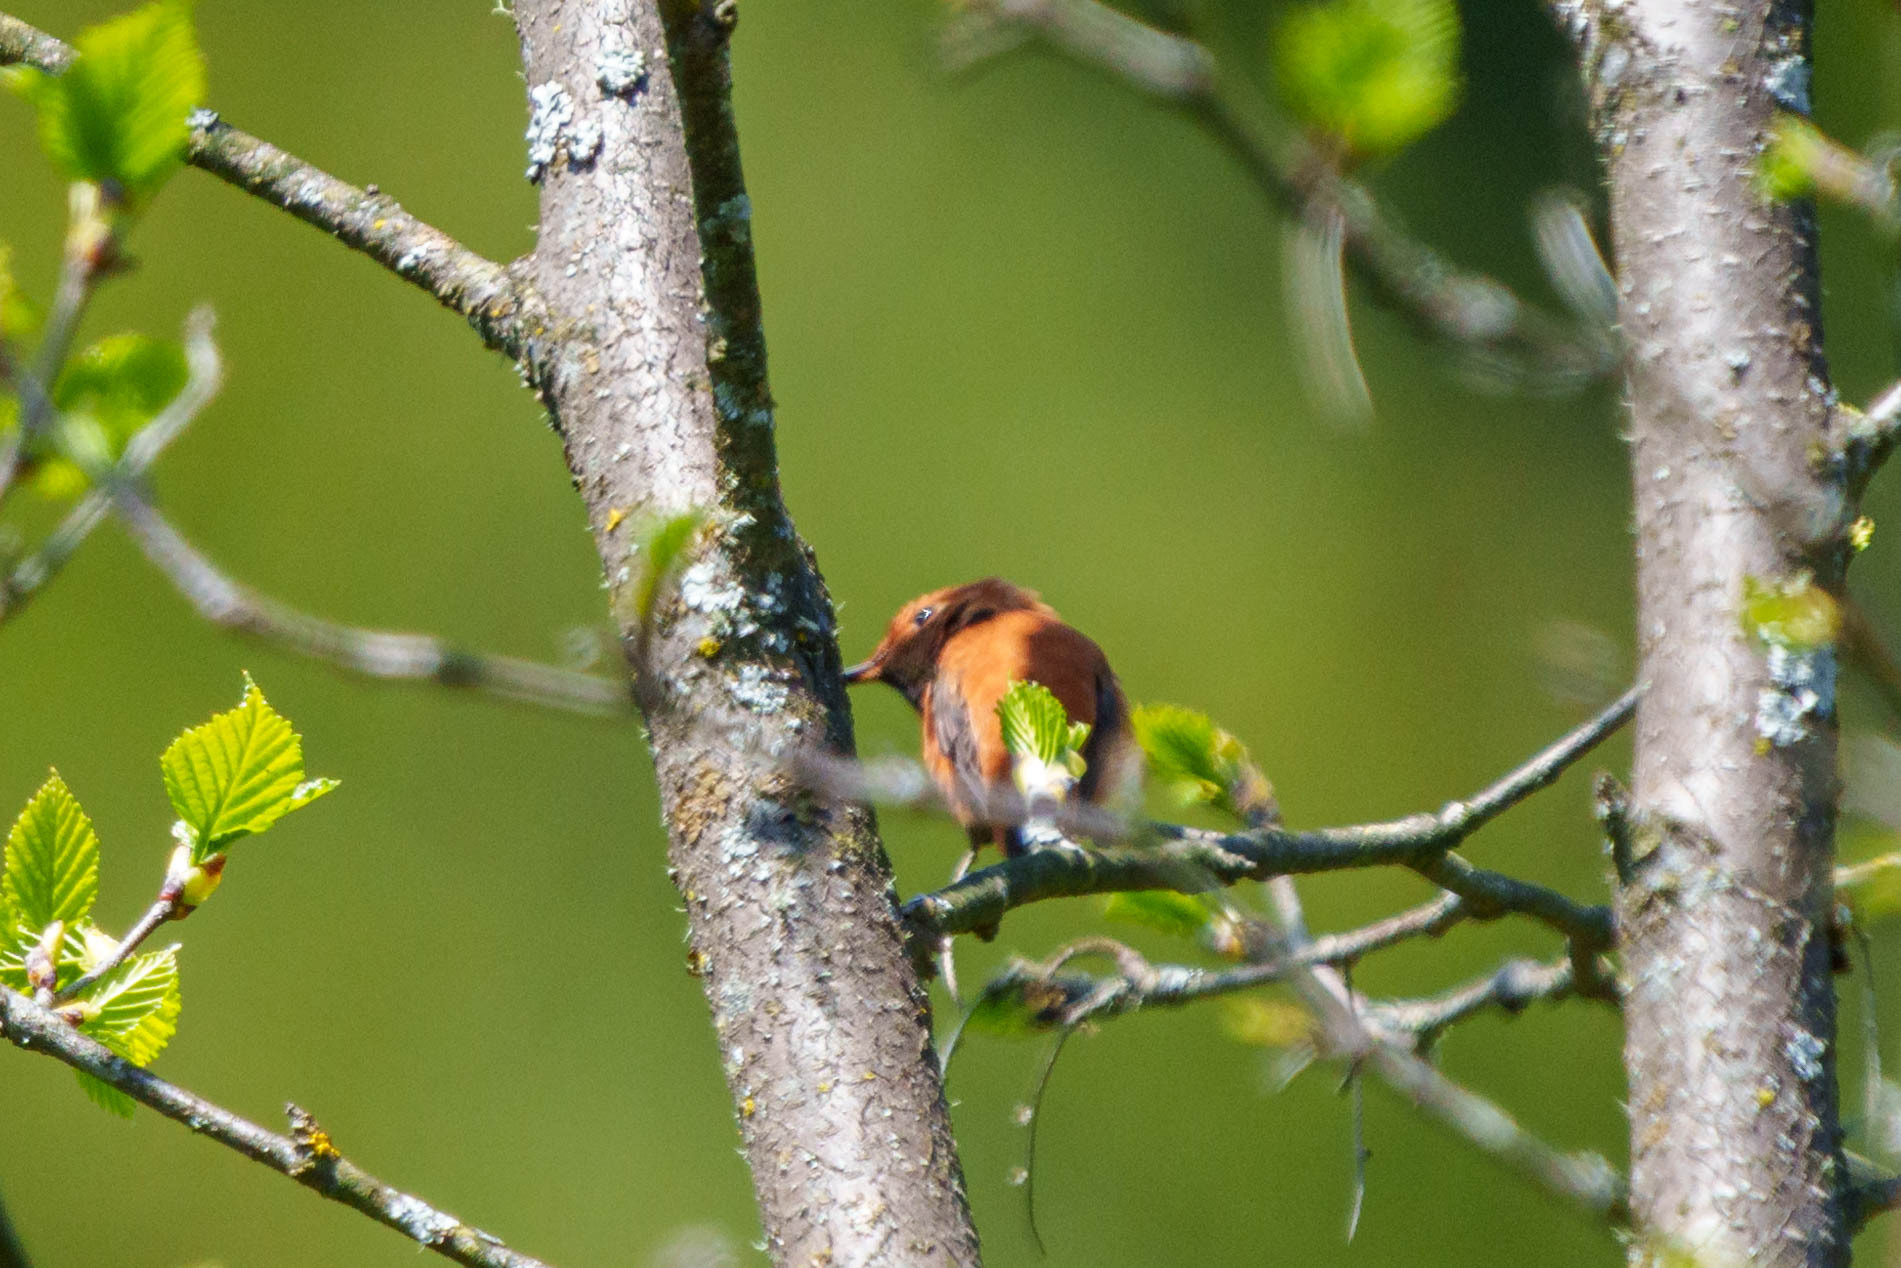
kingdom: Animalia
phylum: Chordata
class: Aves
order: Apodiformes
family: Trochilidae
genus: Selasphorus
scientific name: Selasphorus rufus
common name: Rufous hummingbird
